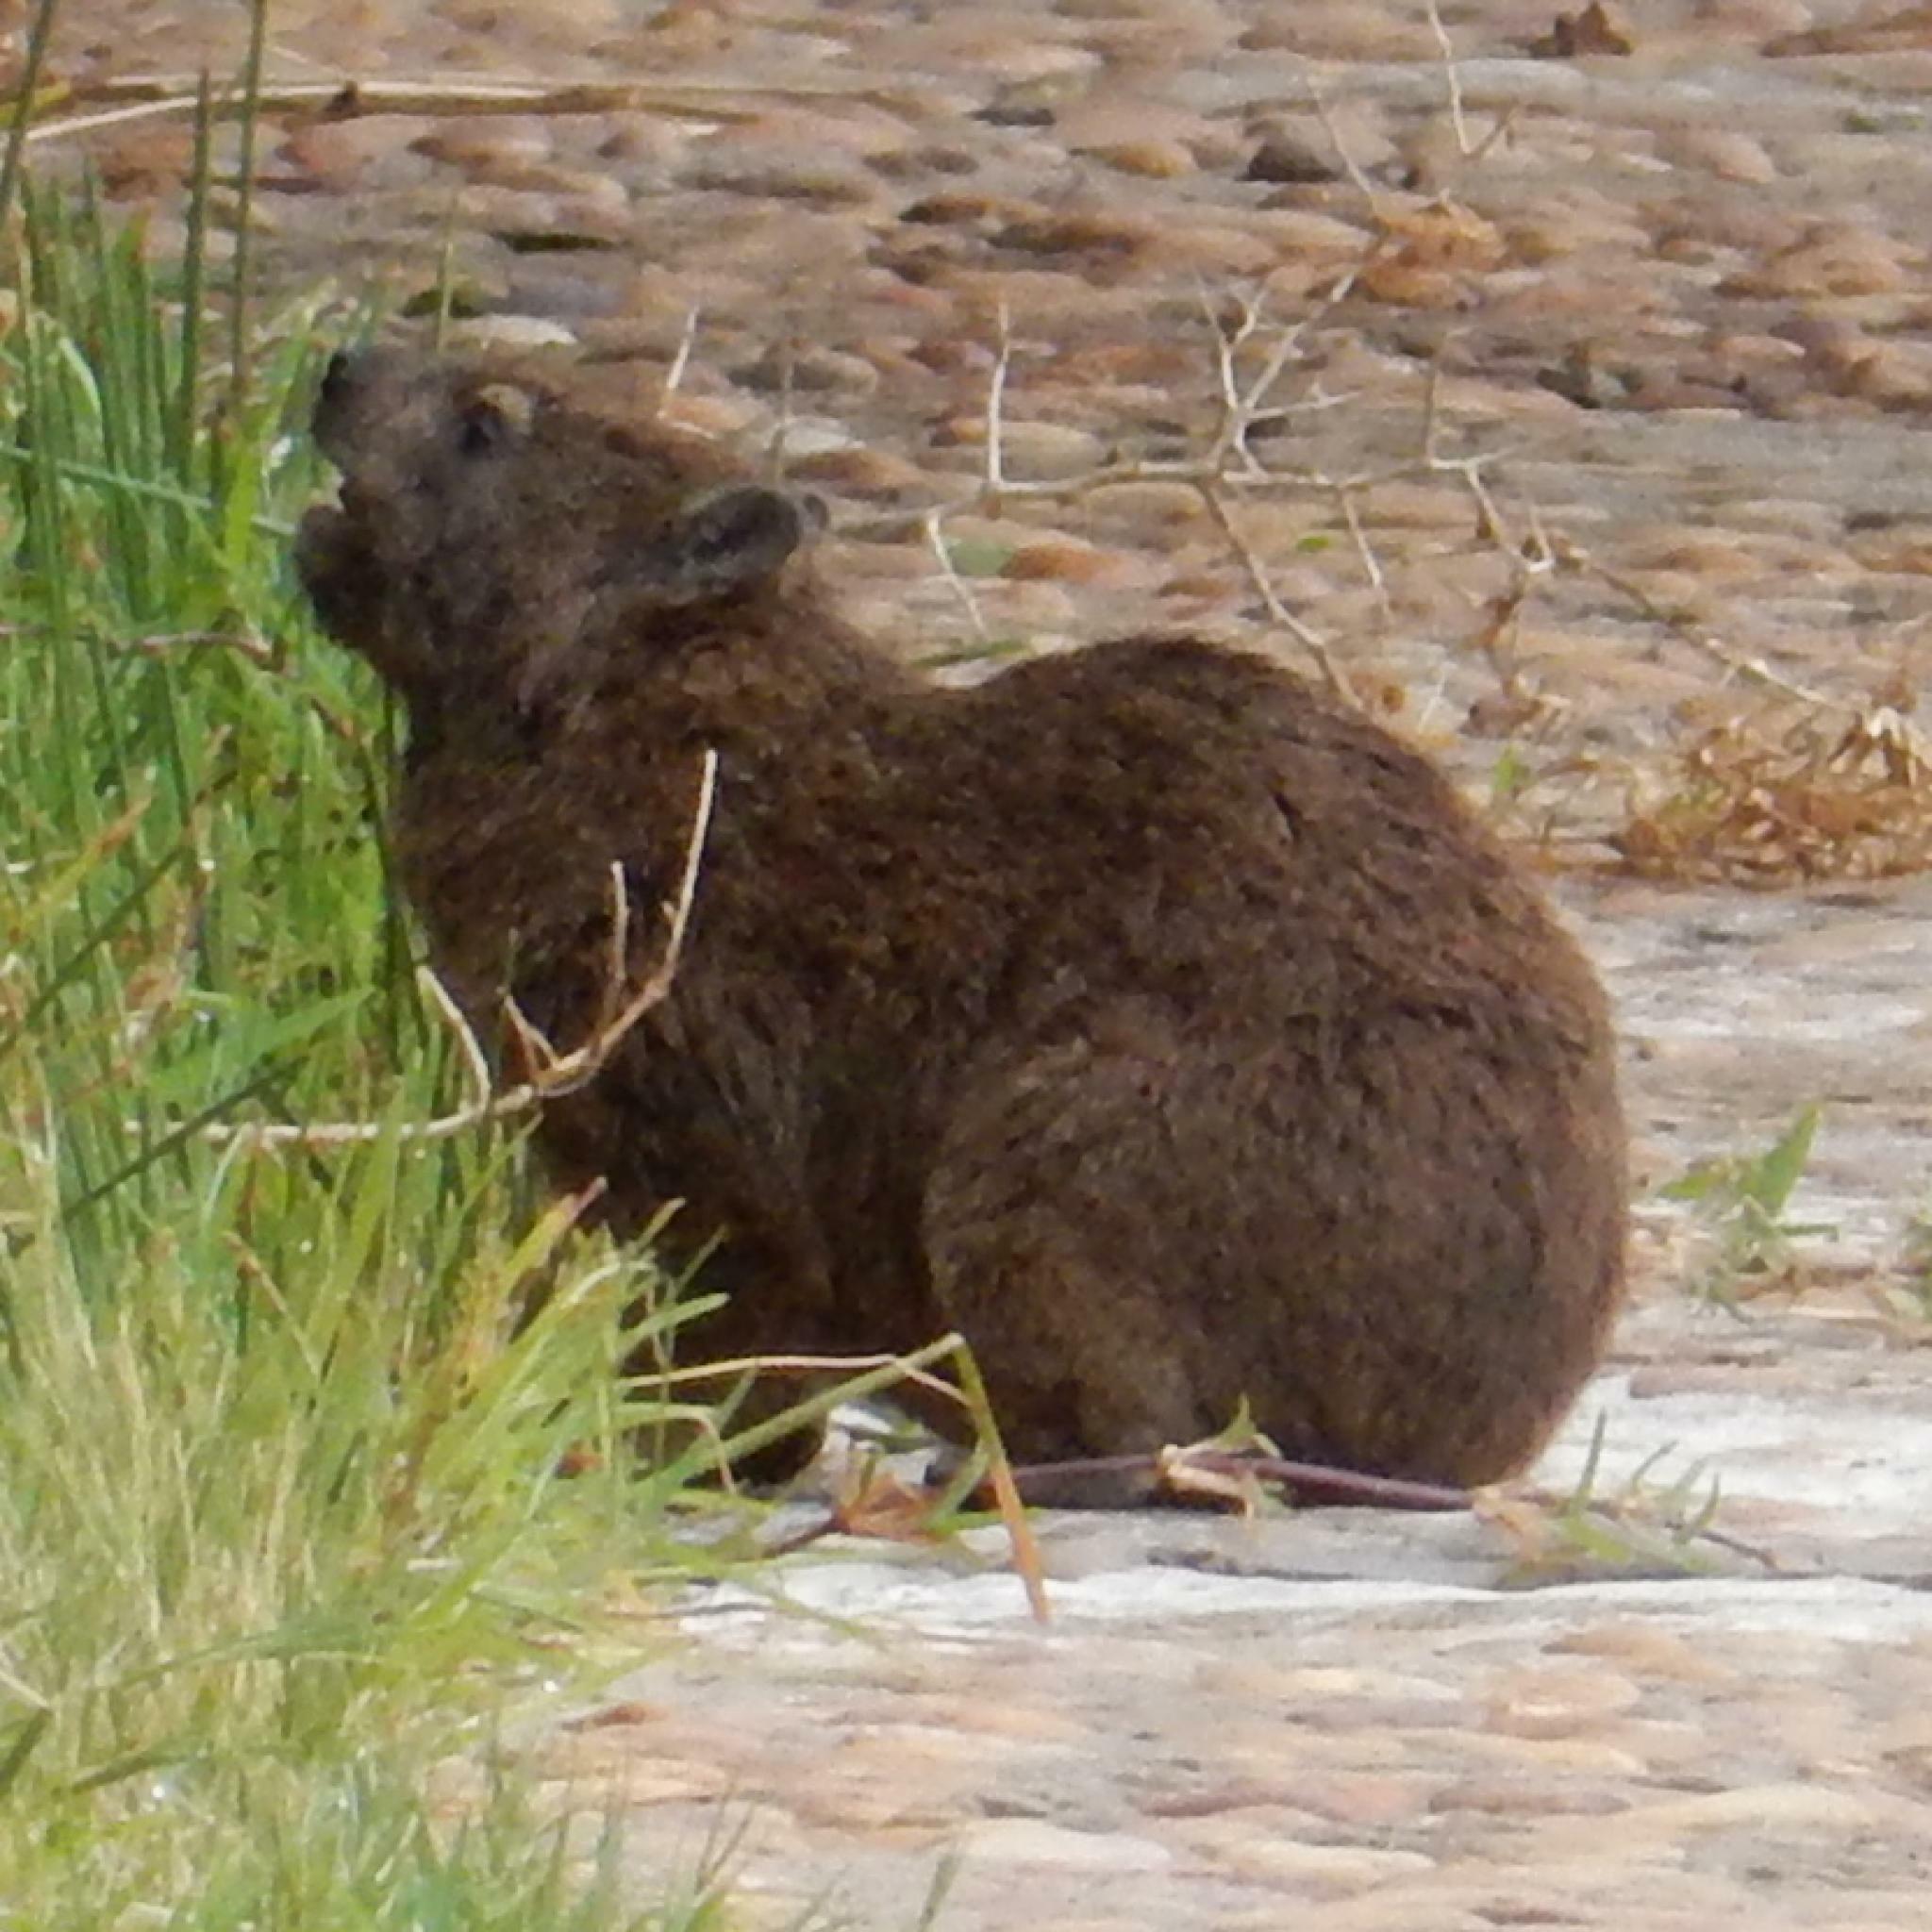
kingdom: Animalia
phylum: Chordata
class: Mammalia
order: Hyracoidea
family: Procaviidae
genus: Procavia
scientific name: Procavia capensis
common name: Rock hyrax
